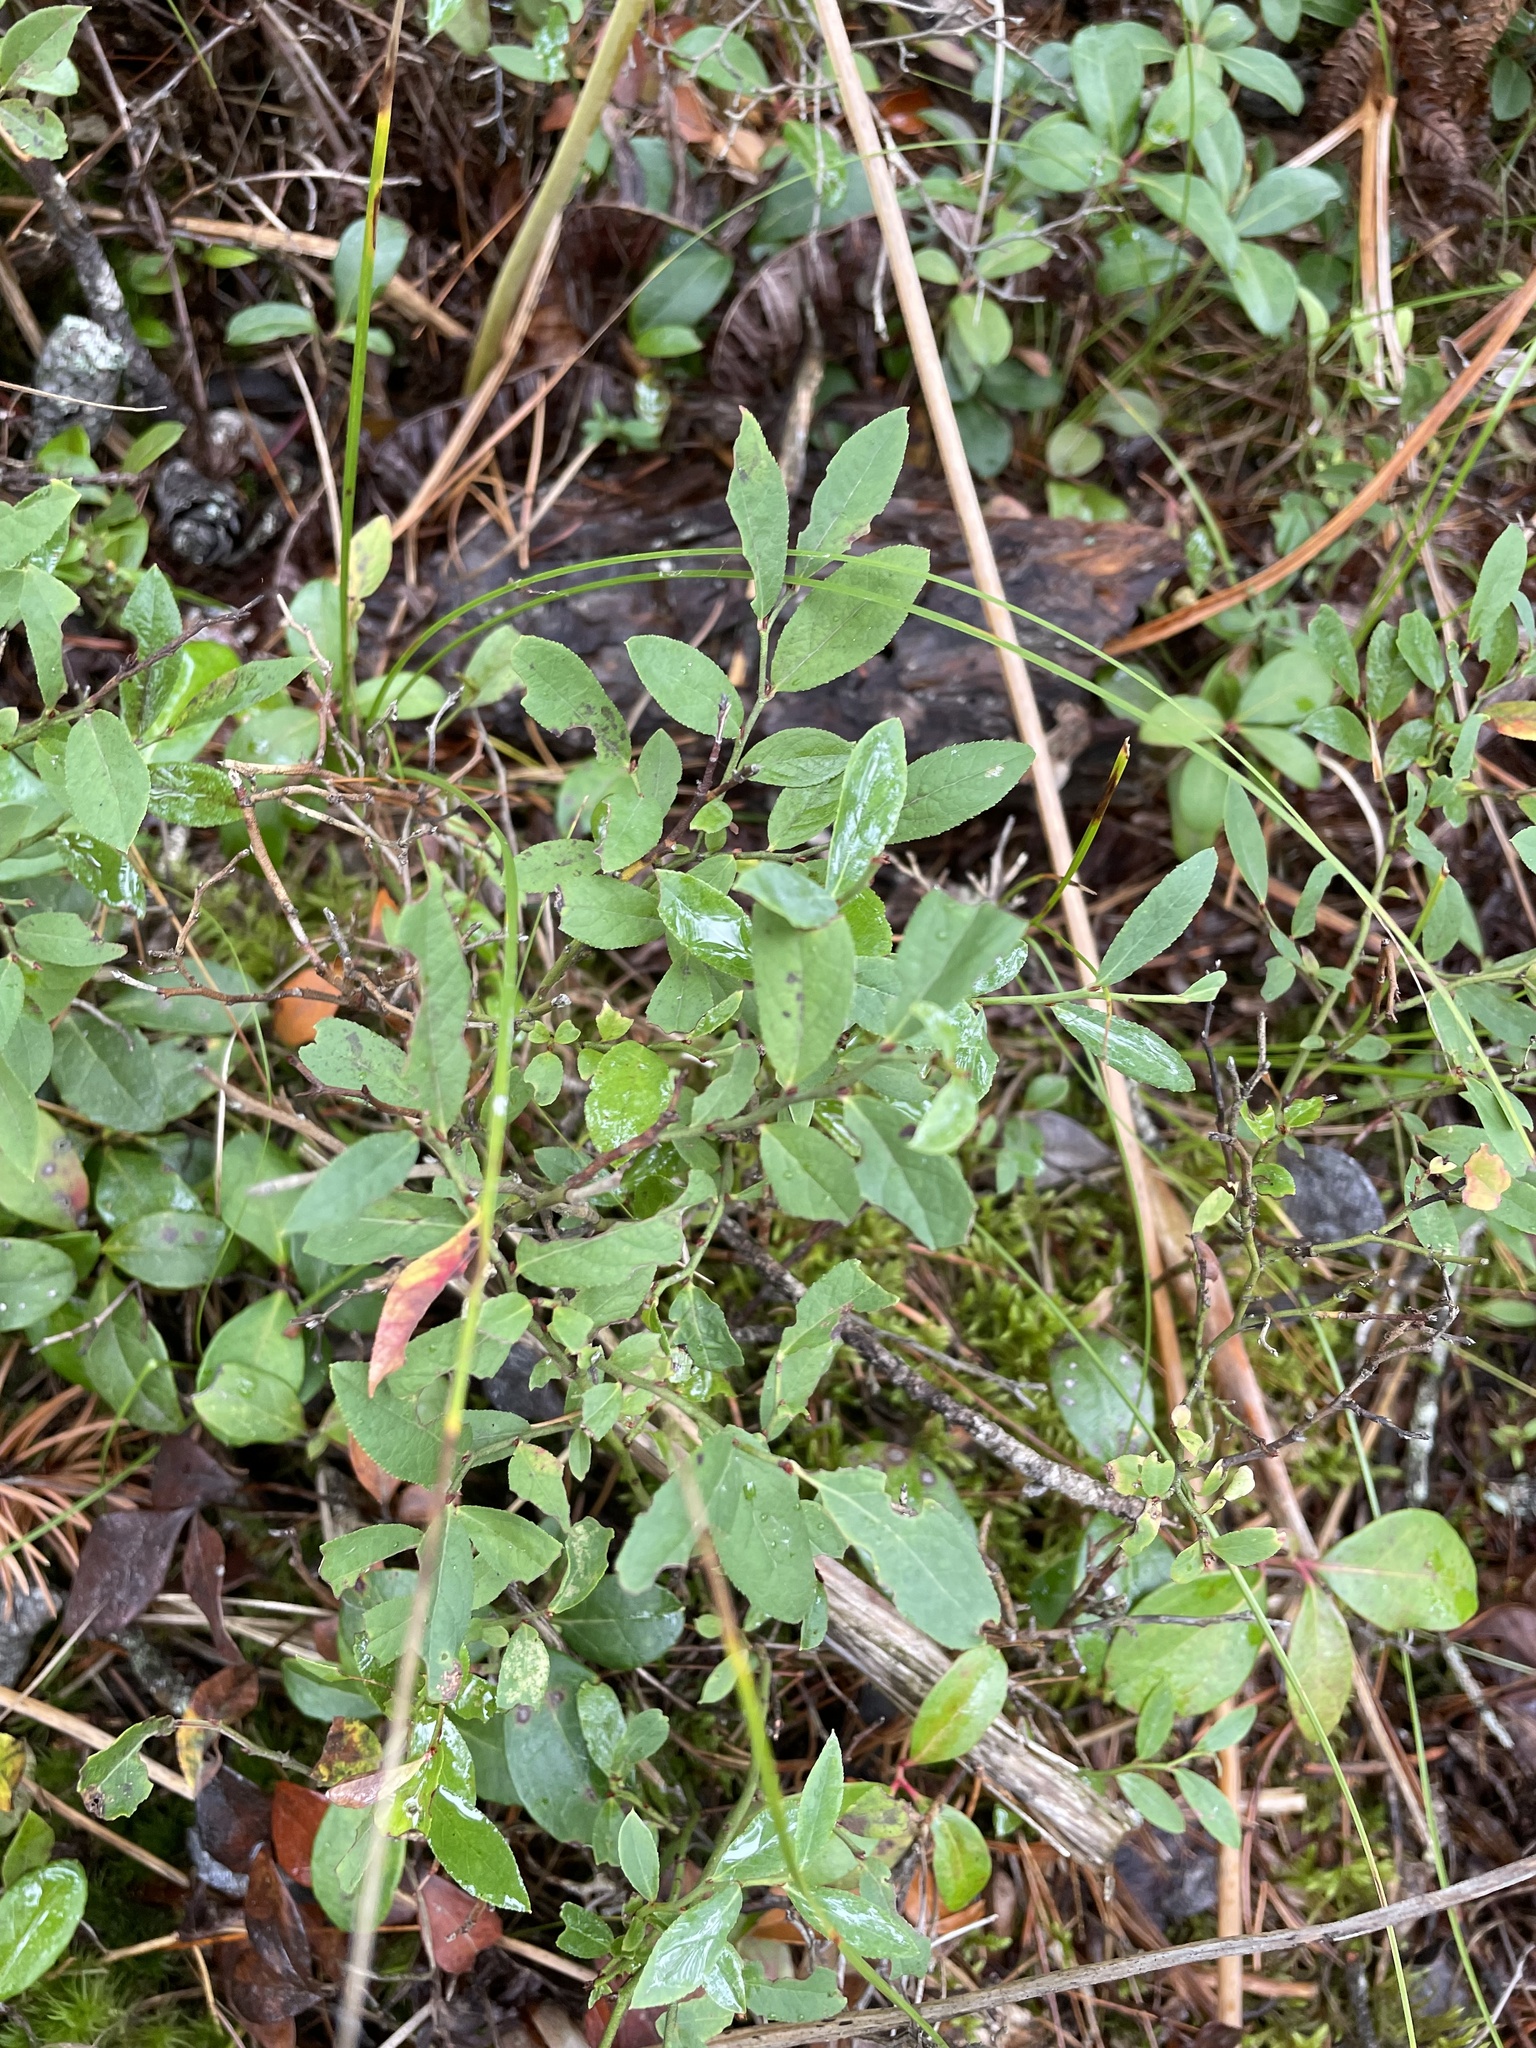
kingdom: Plantae
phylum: Tracheophyta
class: Magnoliopsida
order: Ericales
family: Ericaceae
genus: Vaccinium
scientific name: Vaccinium angustifolium
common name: Early lowbush blueberry
